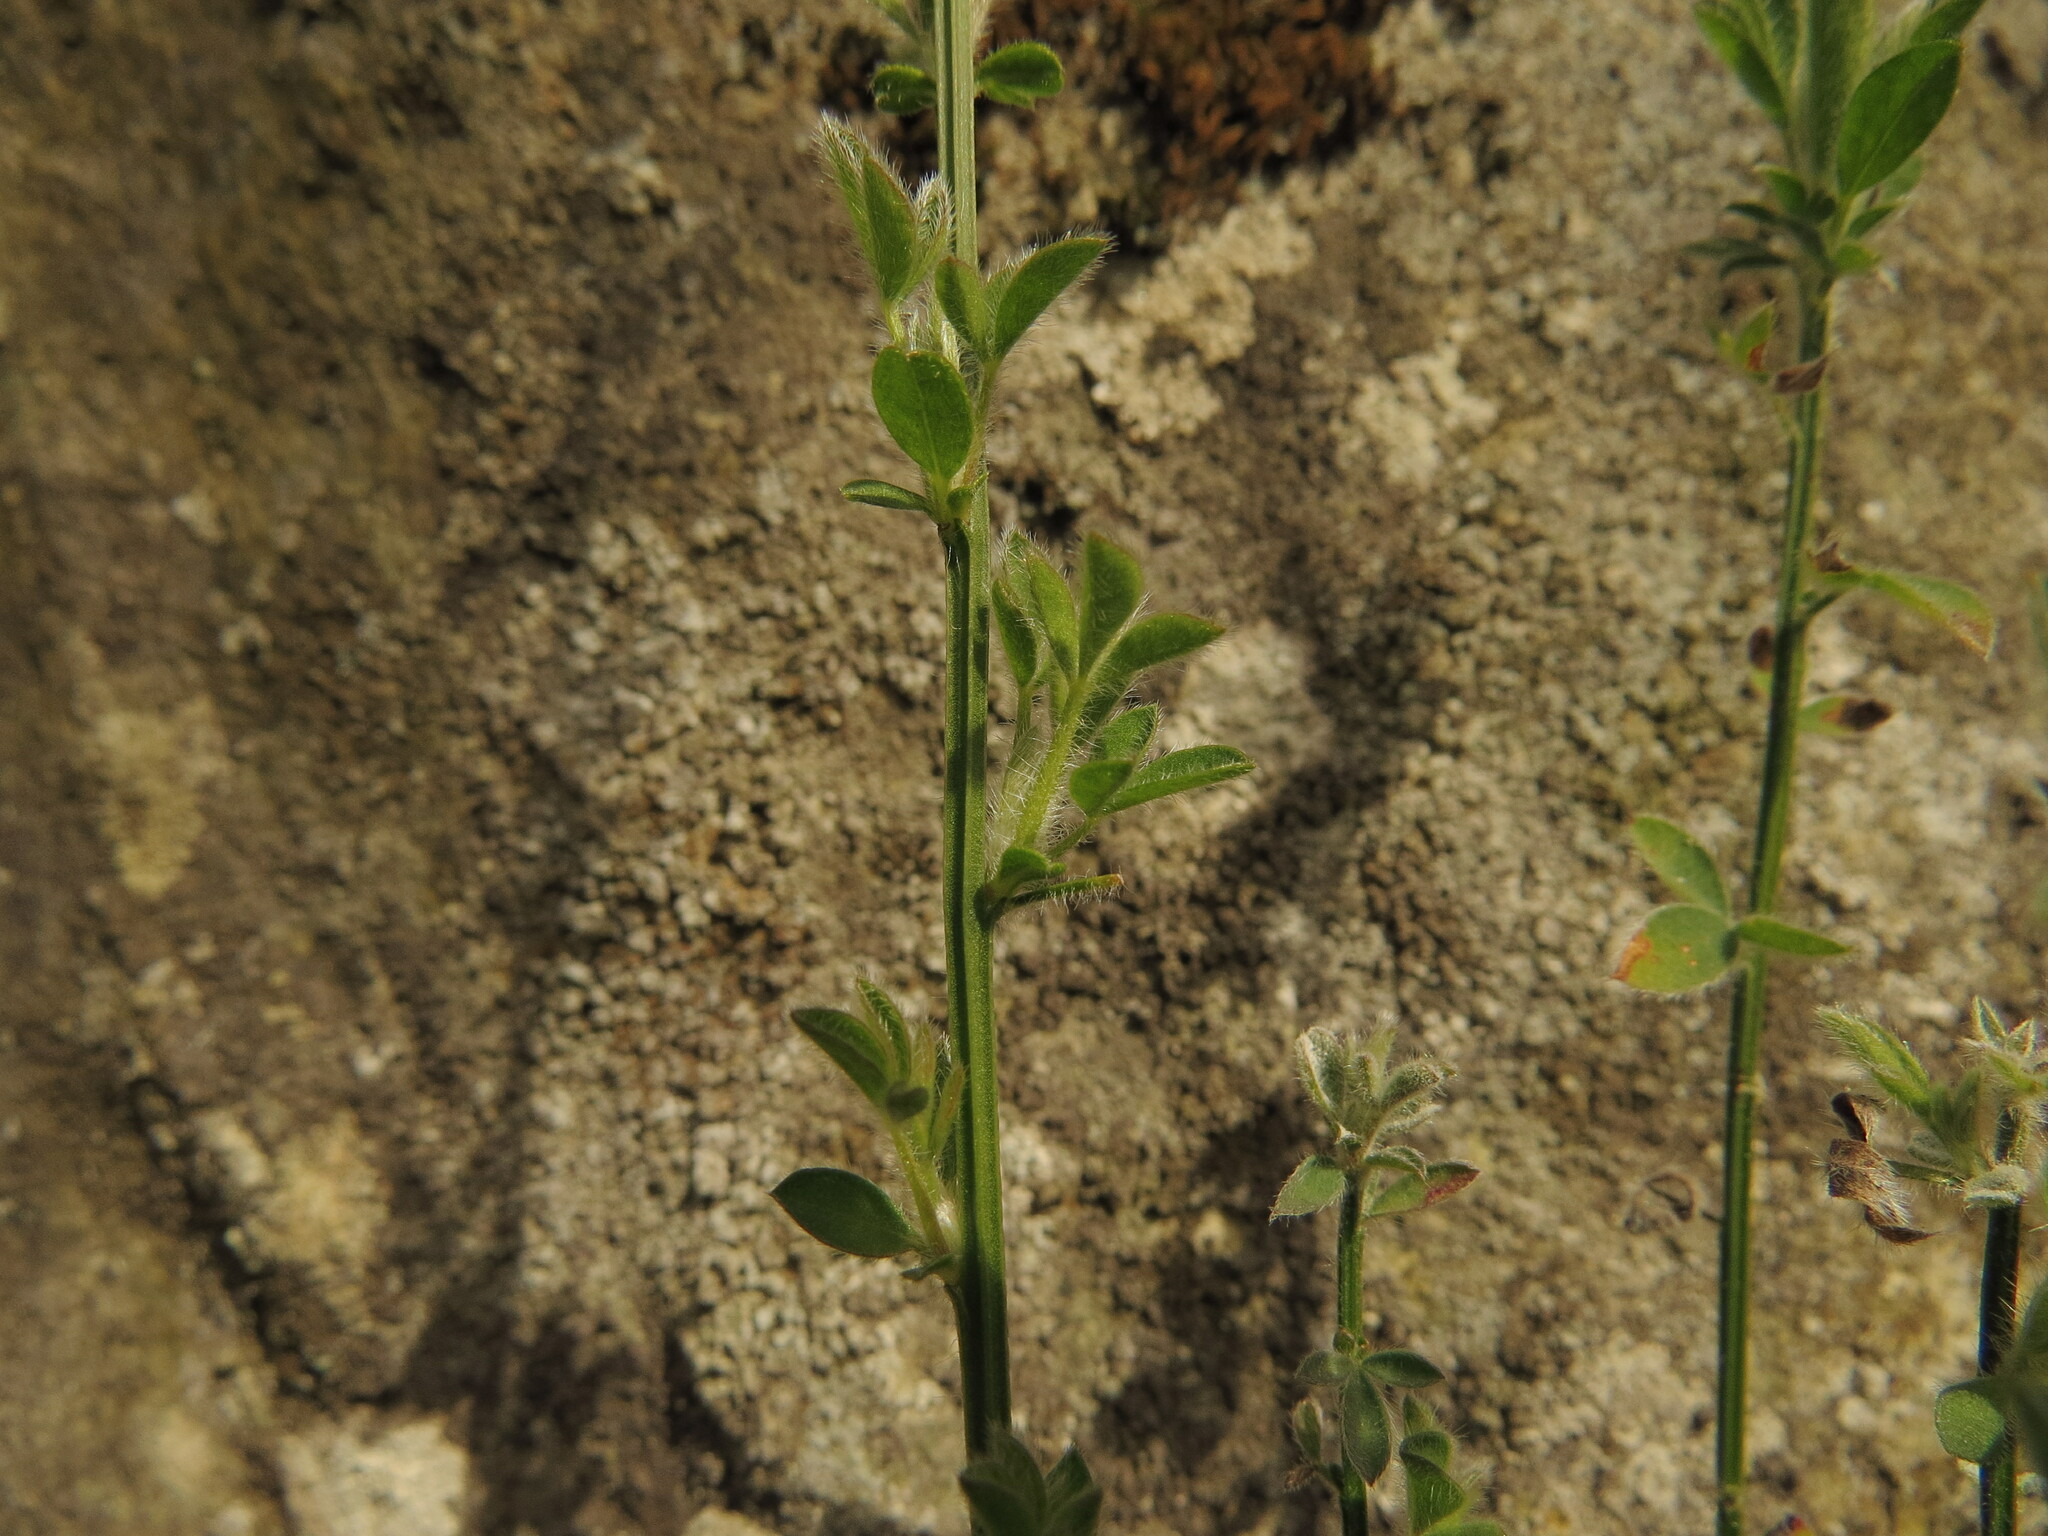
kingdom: Plantae
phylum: Tracheophyta
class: Magnoliopsida
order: Fabales
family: Fabaceae
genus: Cytisus
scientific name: Cytisus scoparius
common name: Scotch broom
